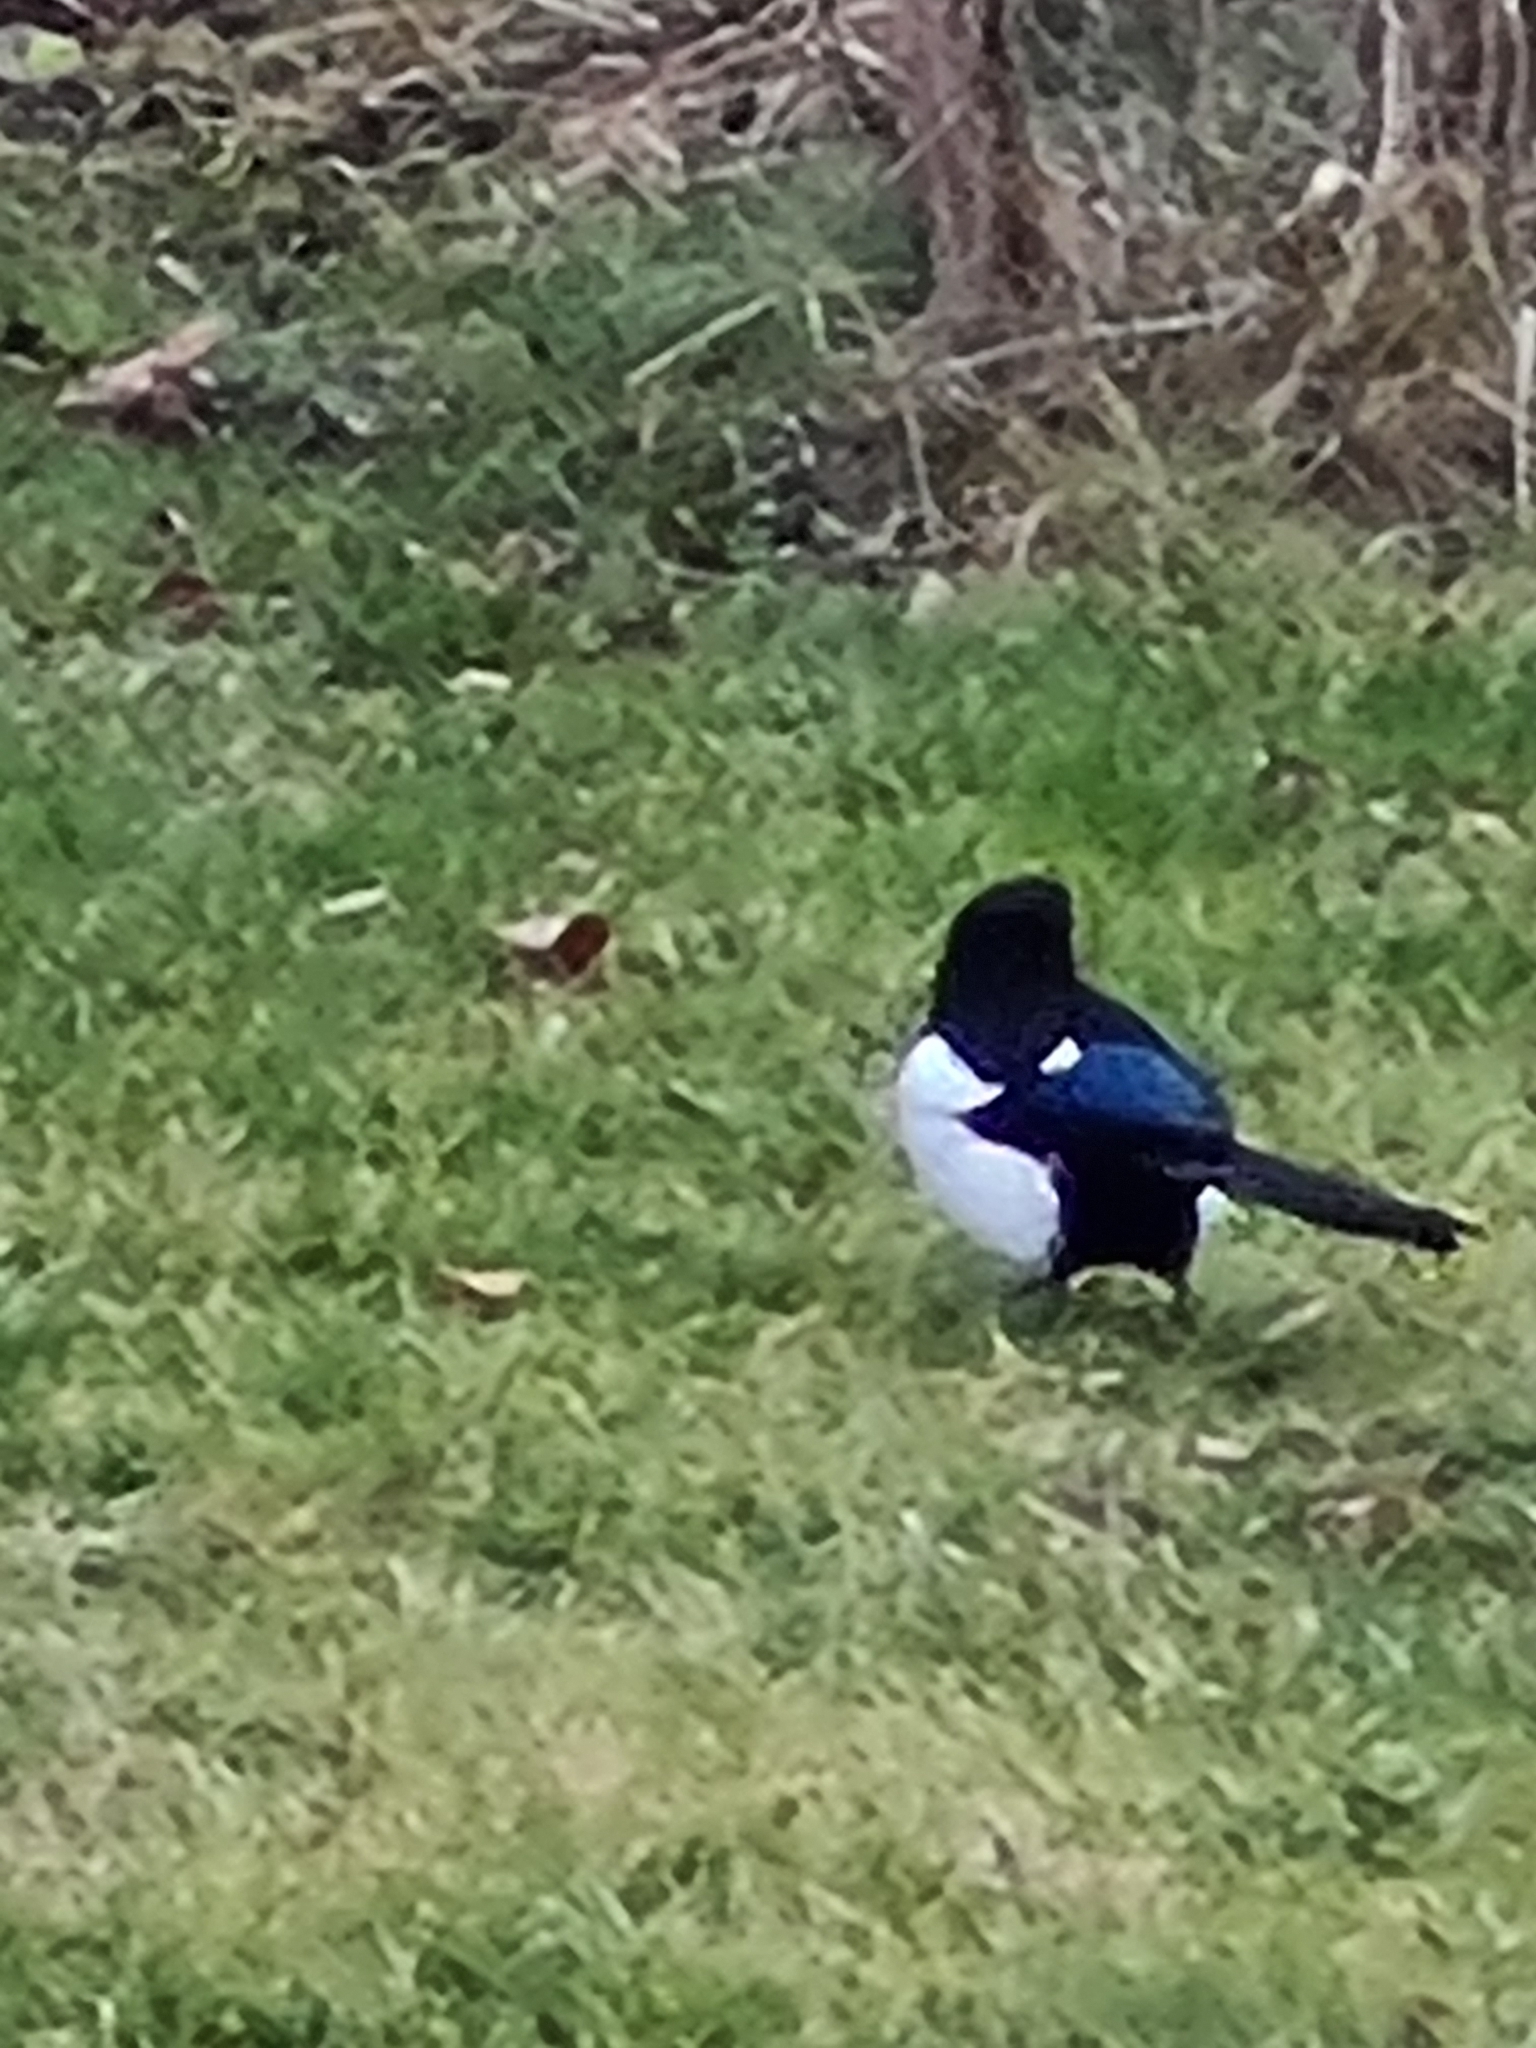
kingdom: Animalia
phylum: Chordata
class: Aves
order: Passeriformes
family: Corvidae
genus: Pica
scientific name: Pica pica
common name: Eurasian magpie
